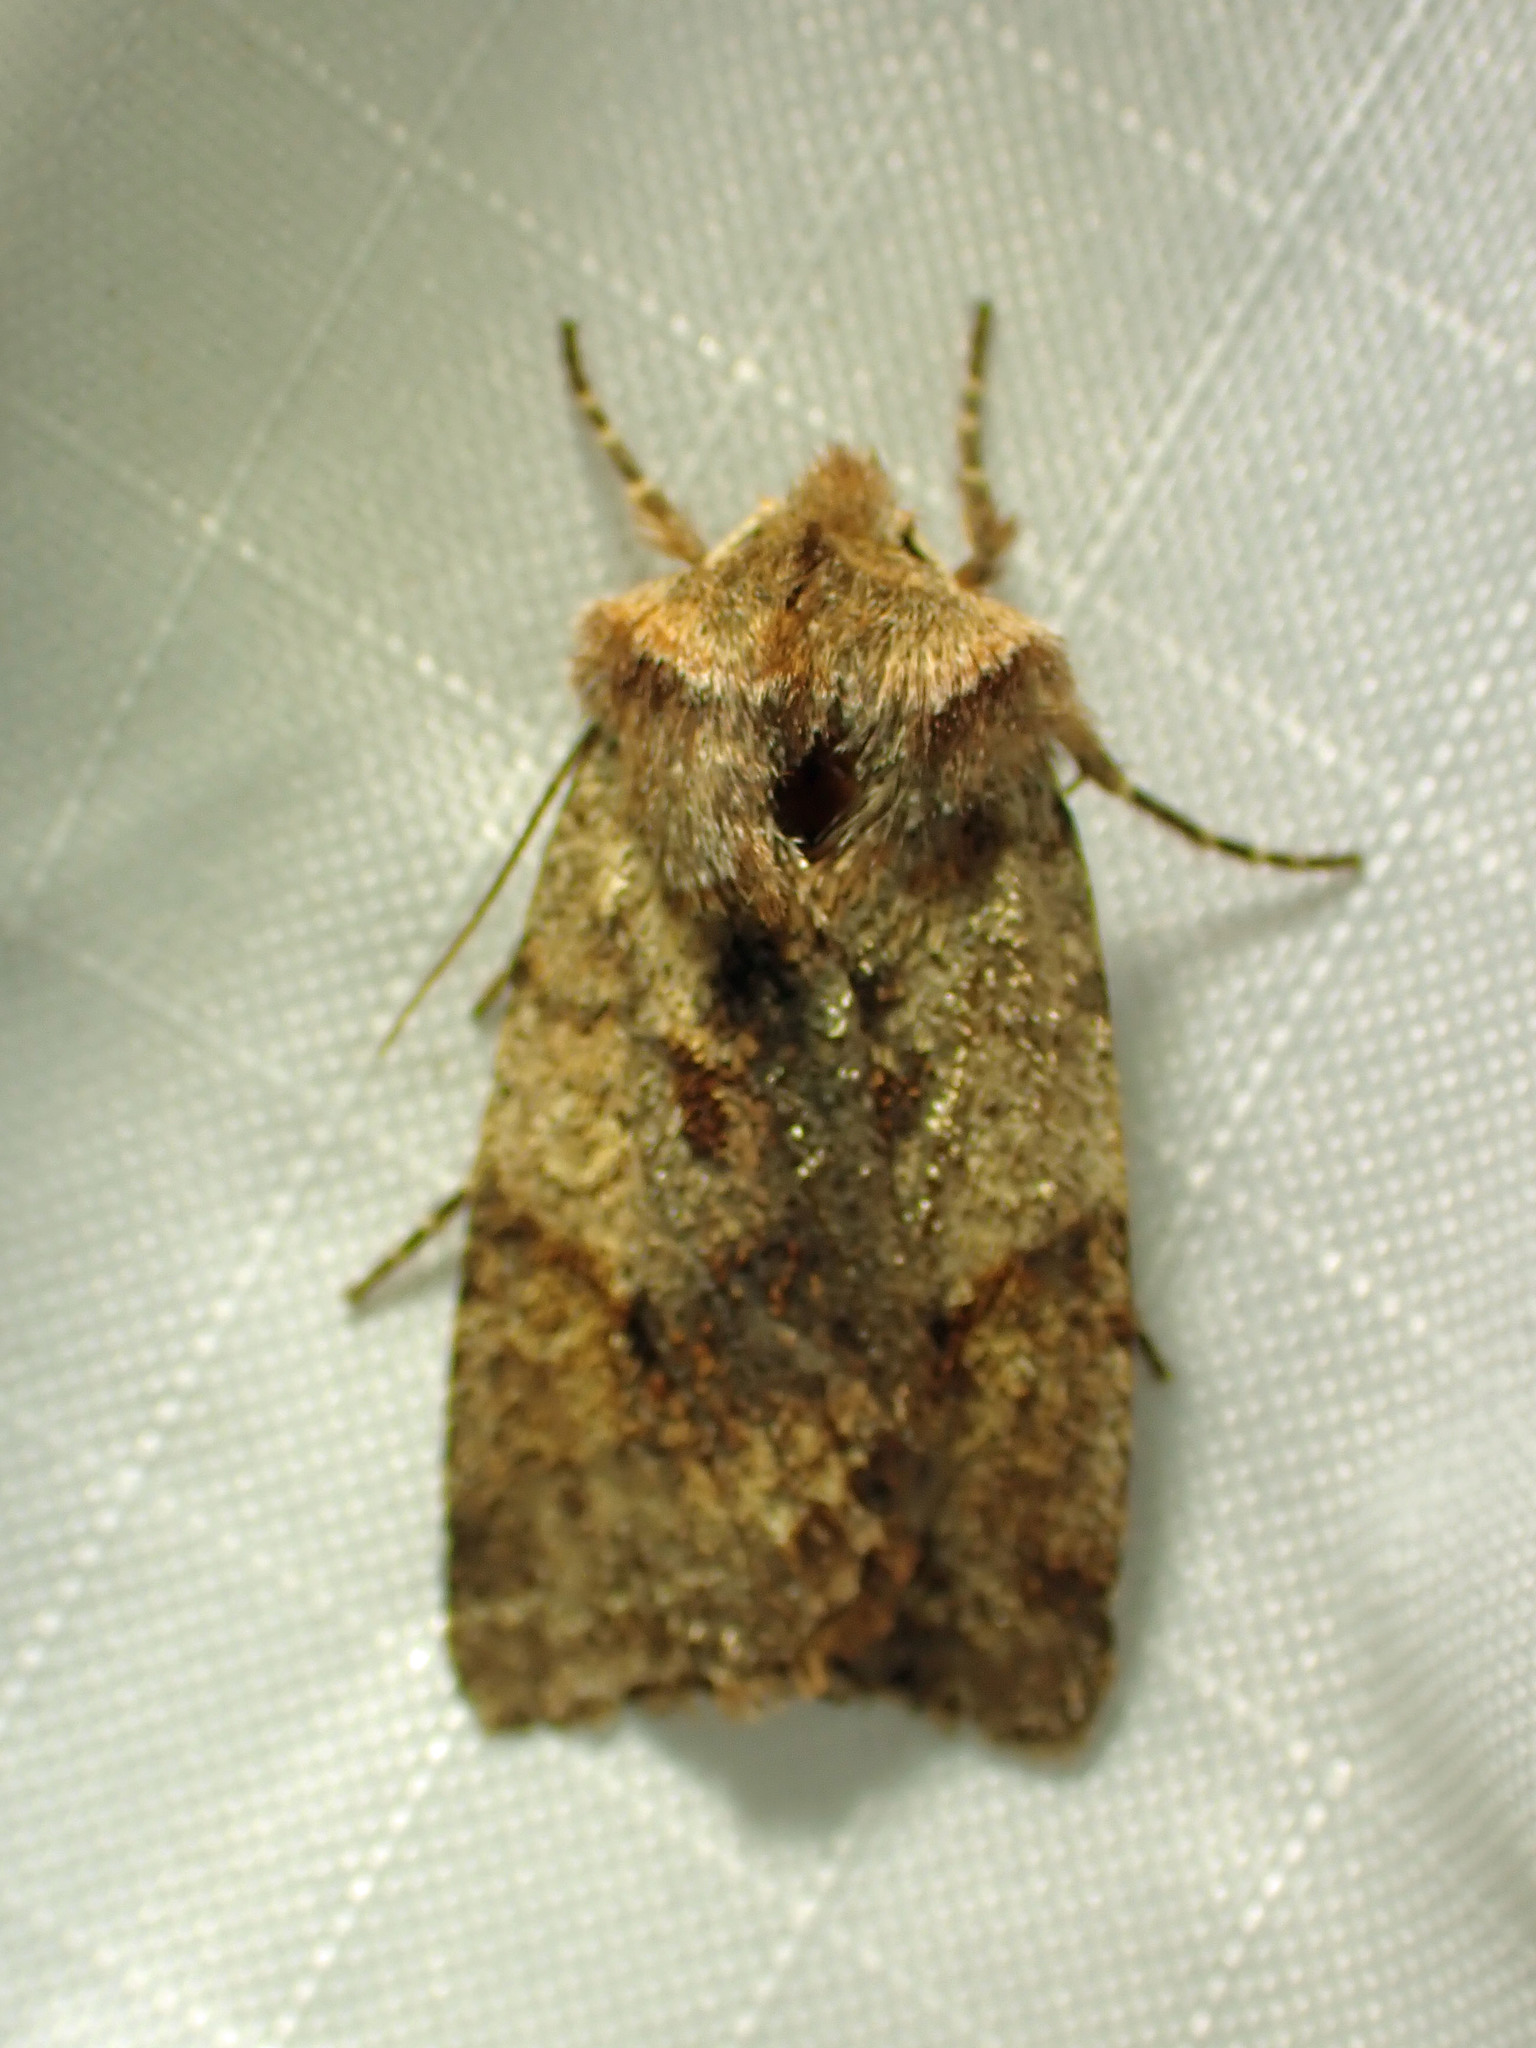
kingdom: Animalia
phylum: Arthropoda
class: Insecta
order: Lepidoptera
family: Noctuidae
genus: Cerastis
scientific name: Cerastis salicarum
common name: Willow dart
